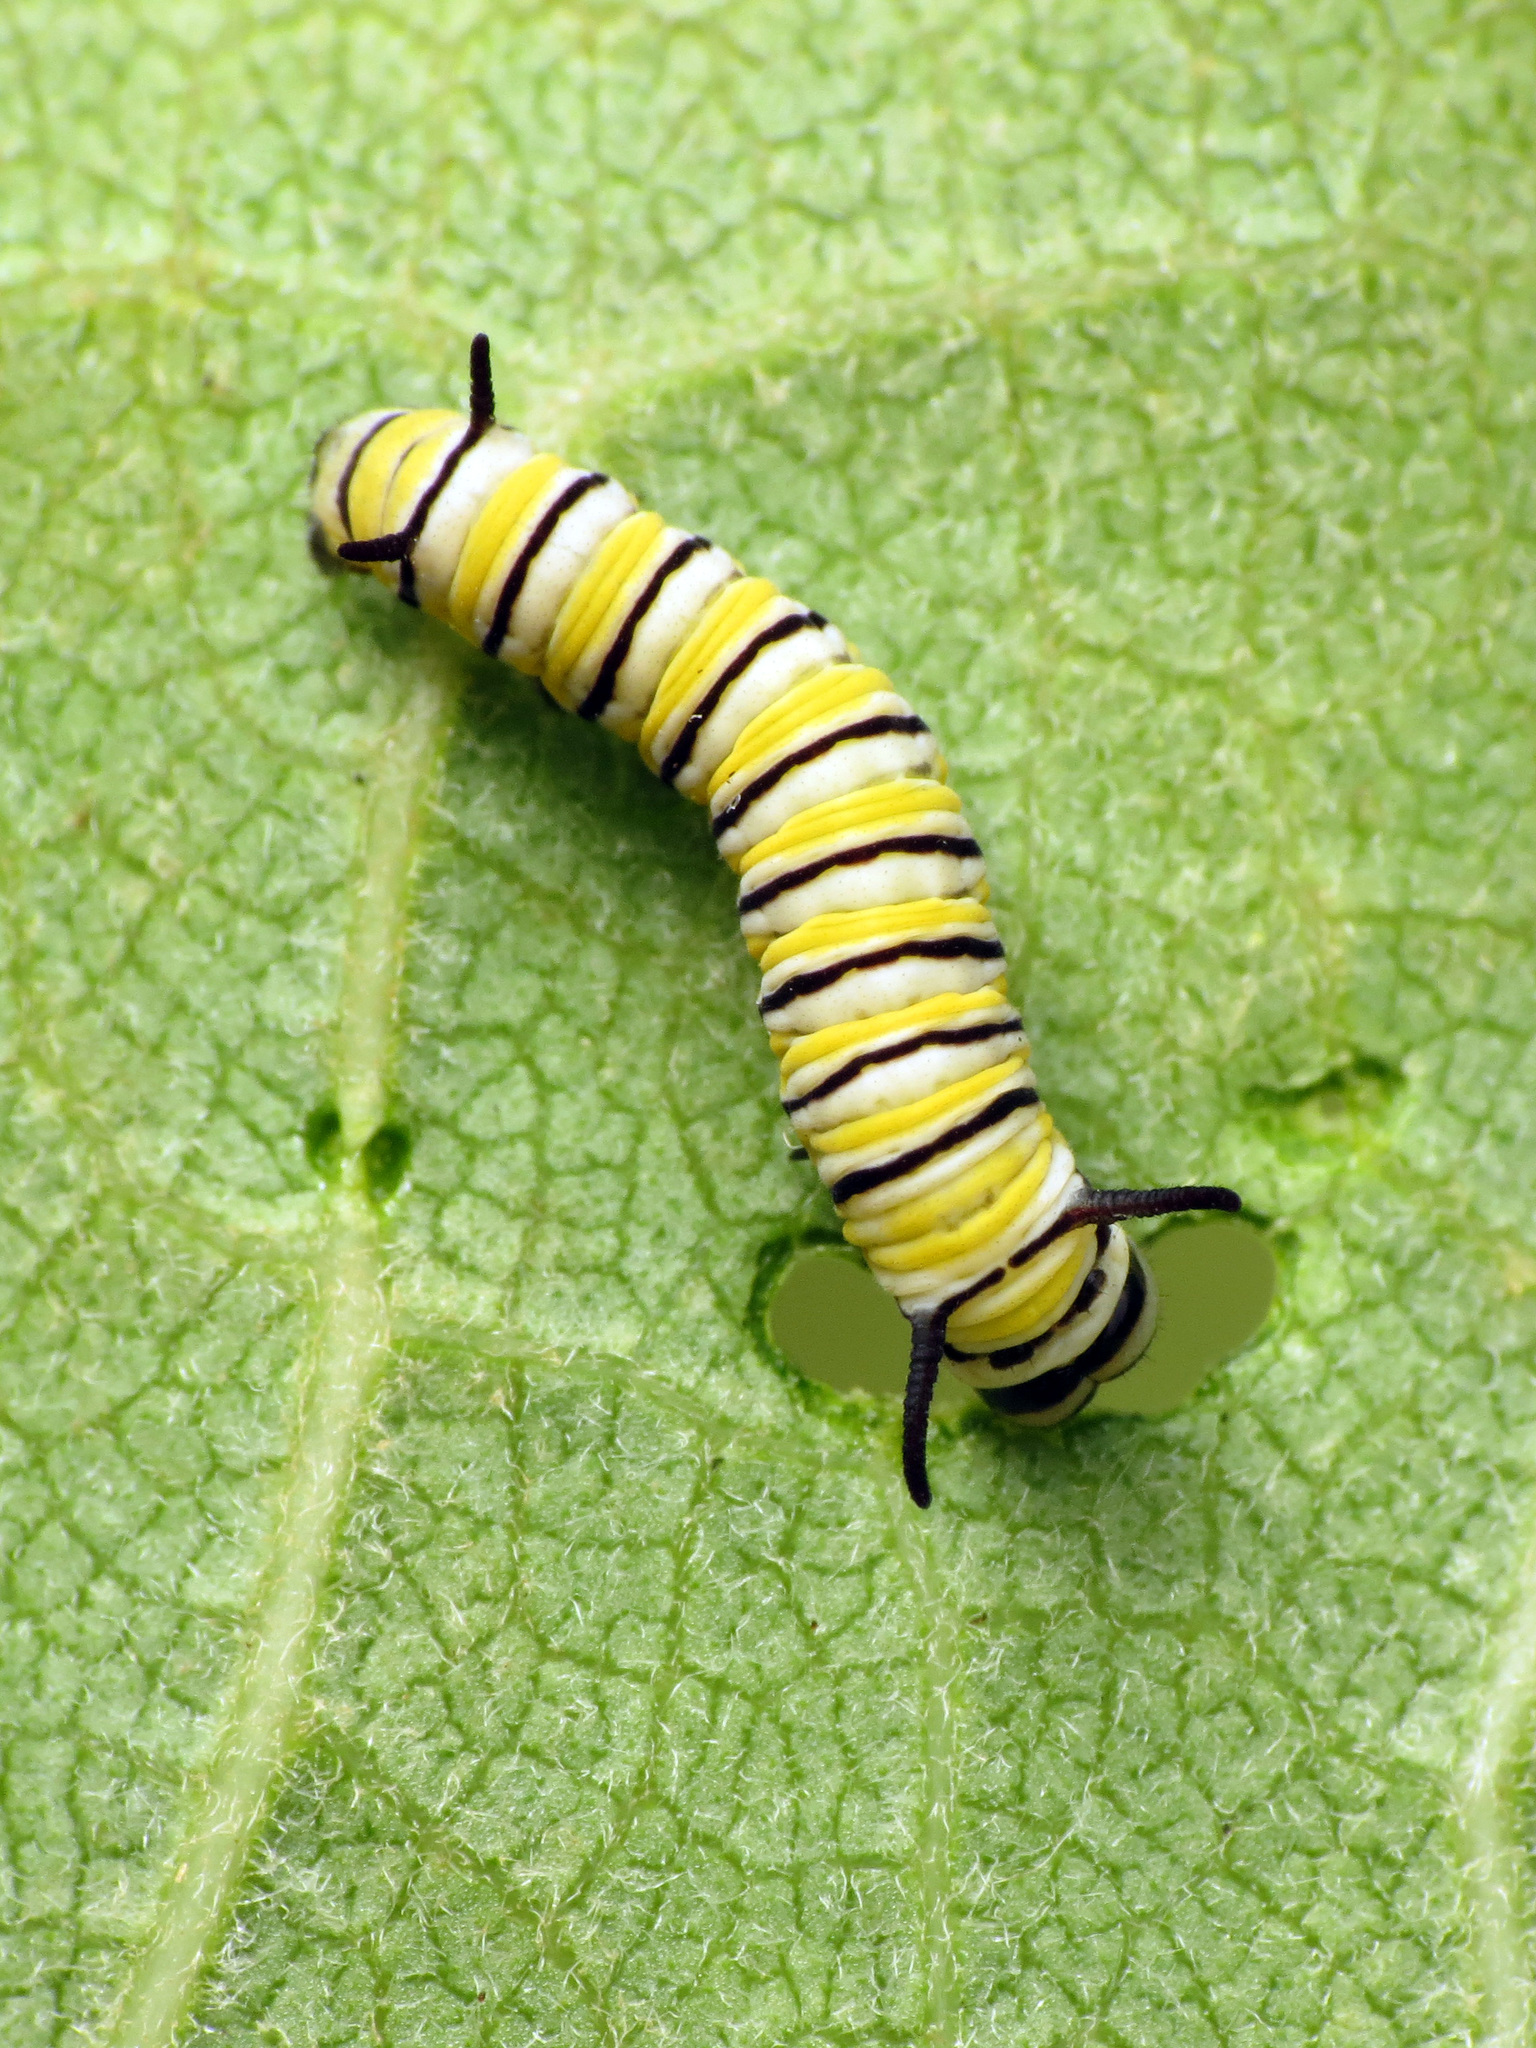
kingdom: Animalia
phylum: Arthropoda
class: Insecta
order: Lepidoptera
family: Nymphalidae
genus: Danaus
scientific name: Danaus plexippus
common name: Monarch
